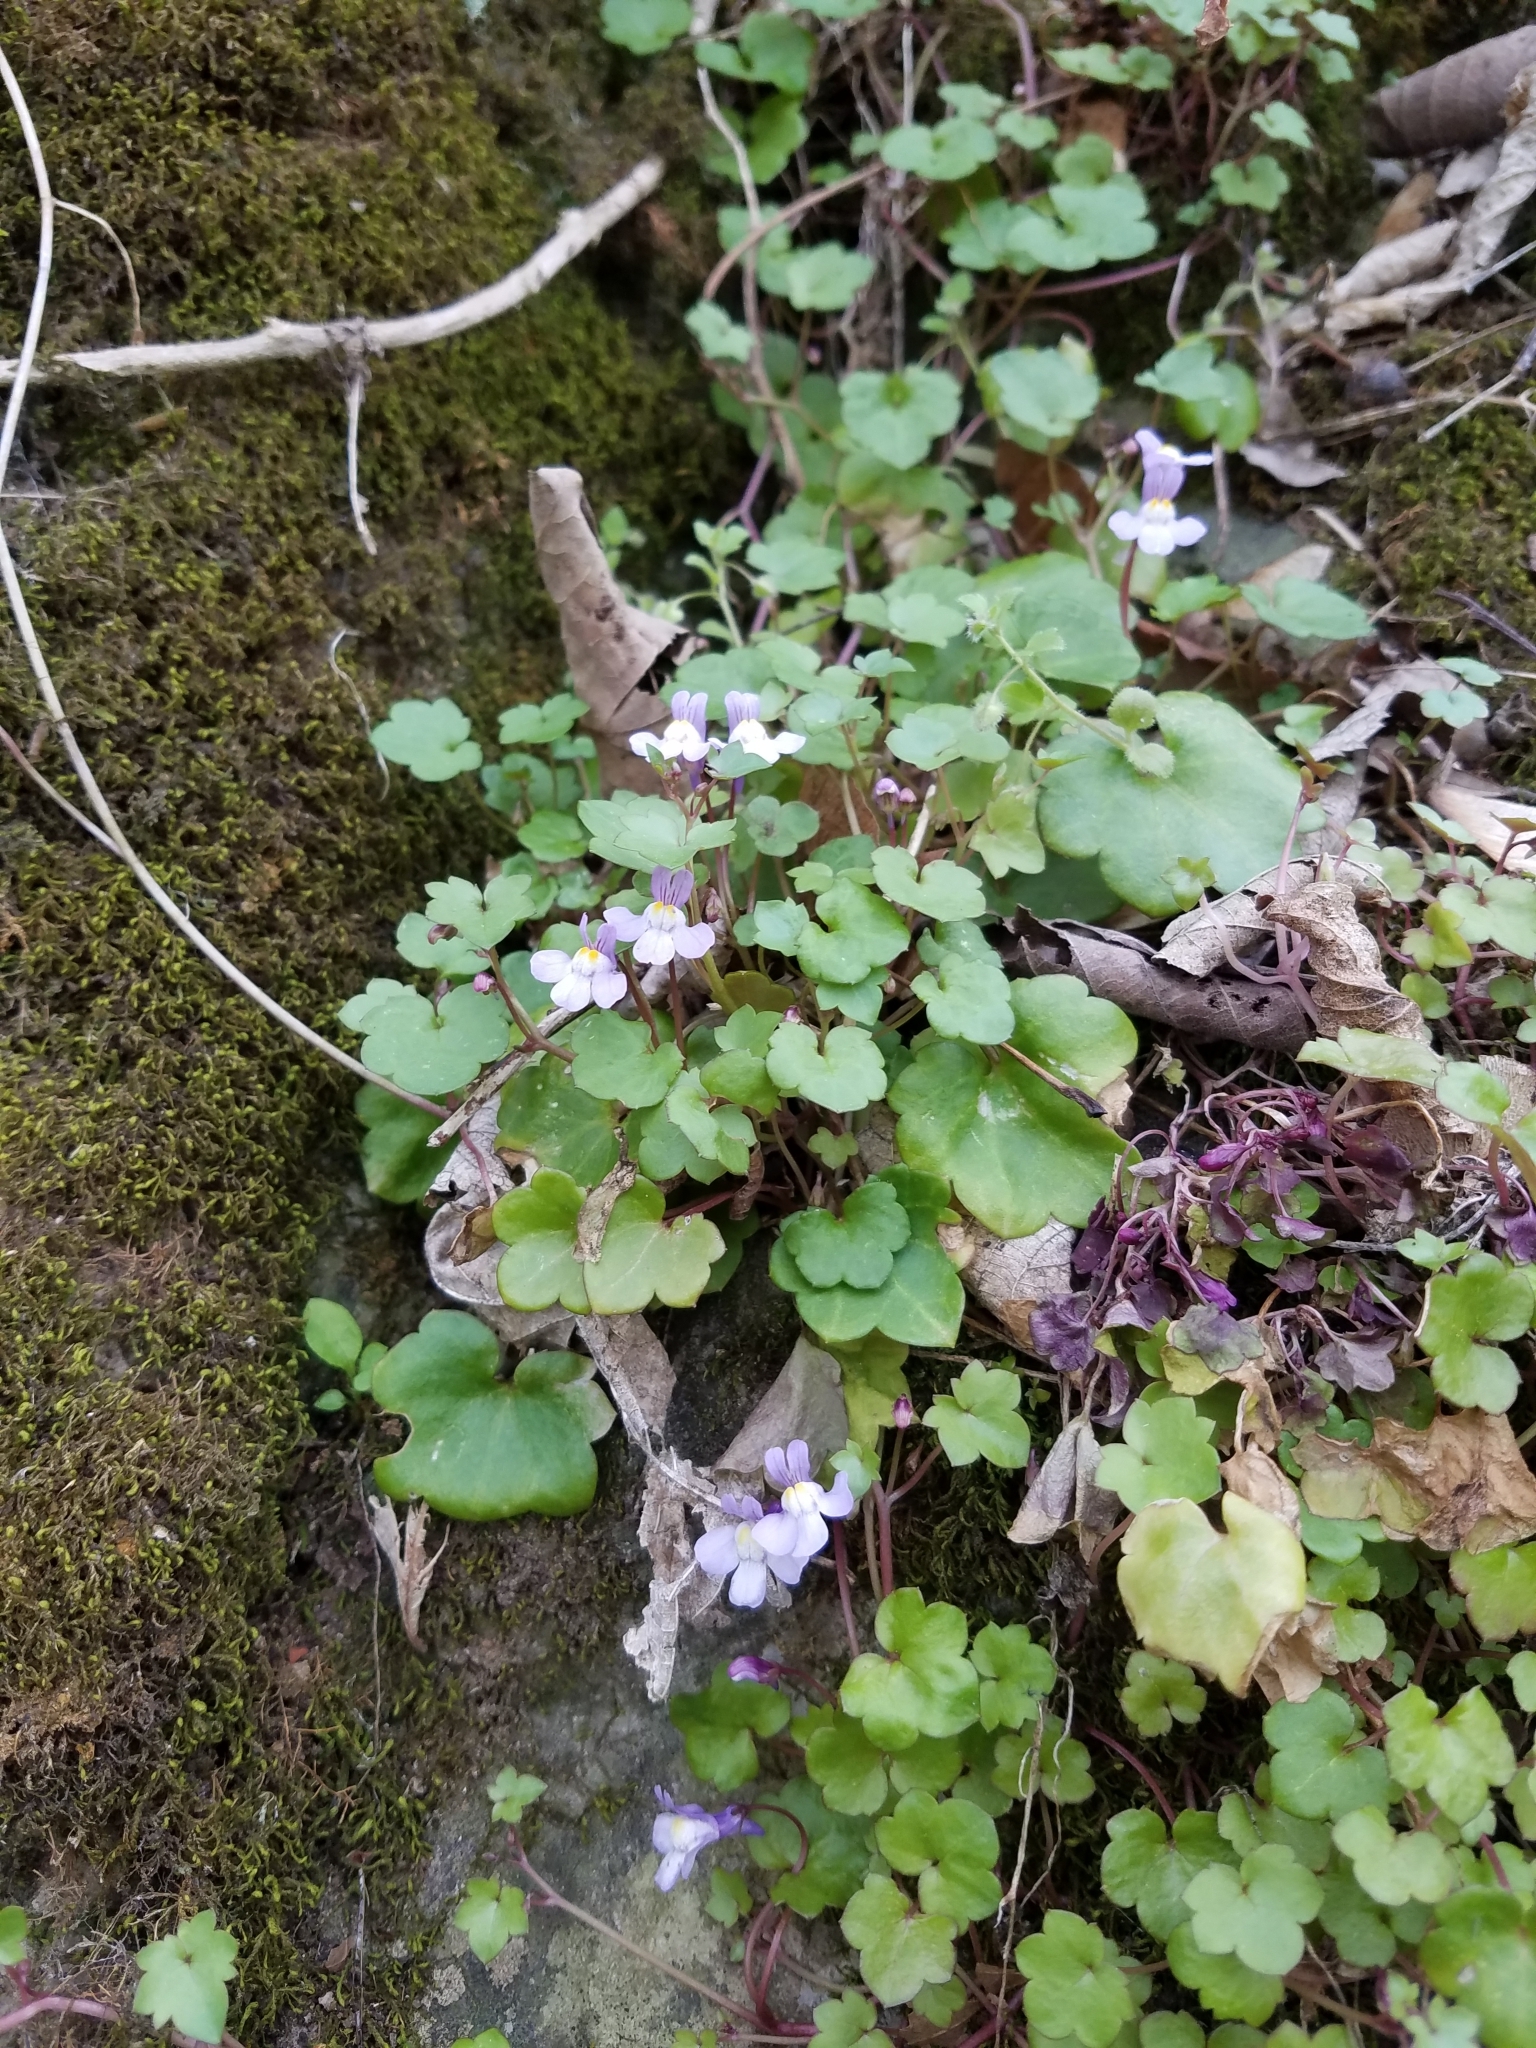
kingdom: Plantae
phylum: Tracheophyta
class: Magnoliopsida
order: Lamiales
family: Plantaginaceae
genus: Cymbalaria
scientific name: Cymbalaria muralis
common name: Ivy-leaved toadflax
